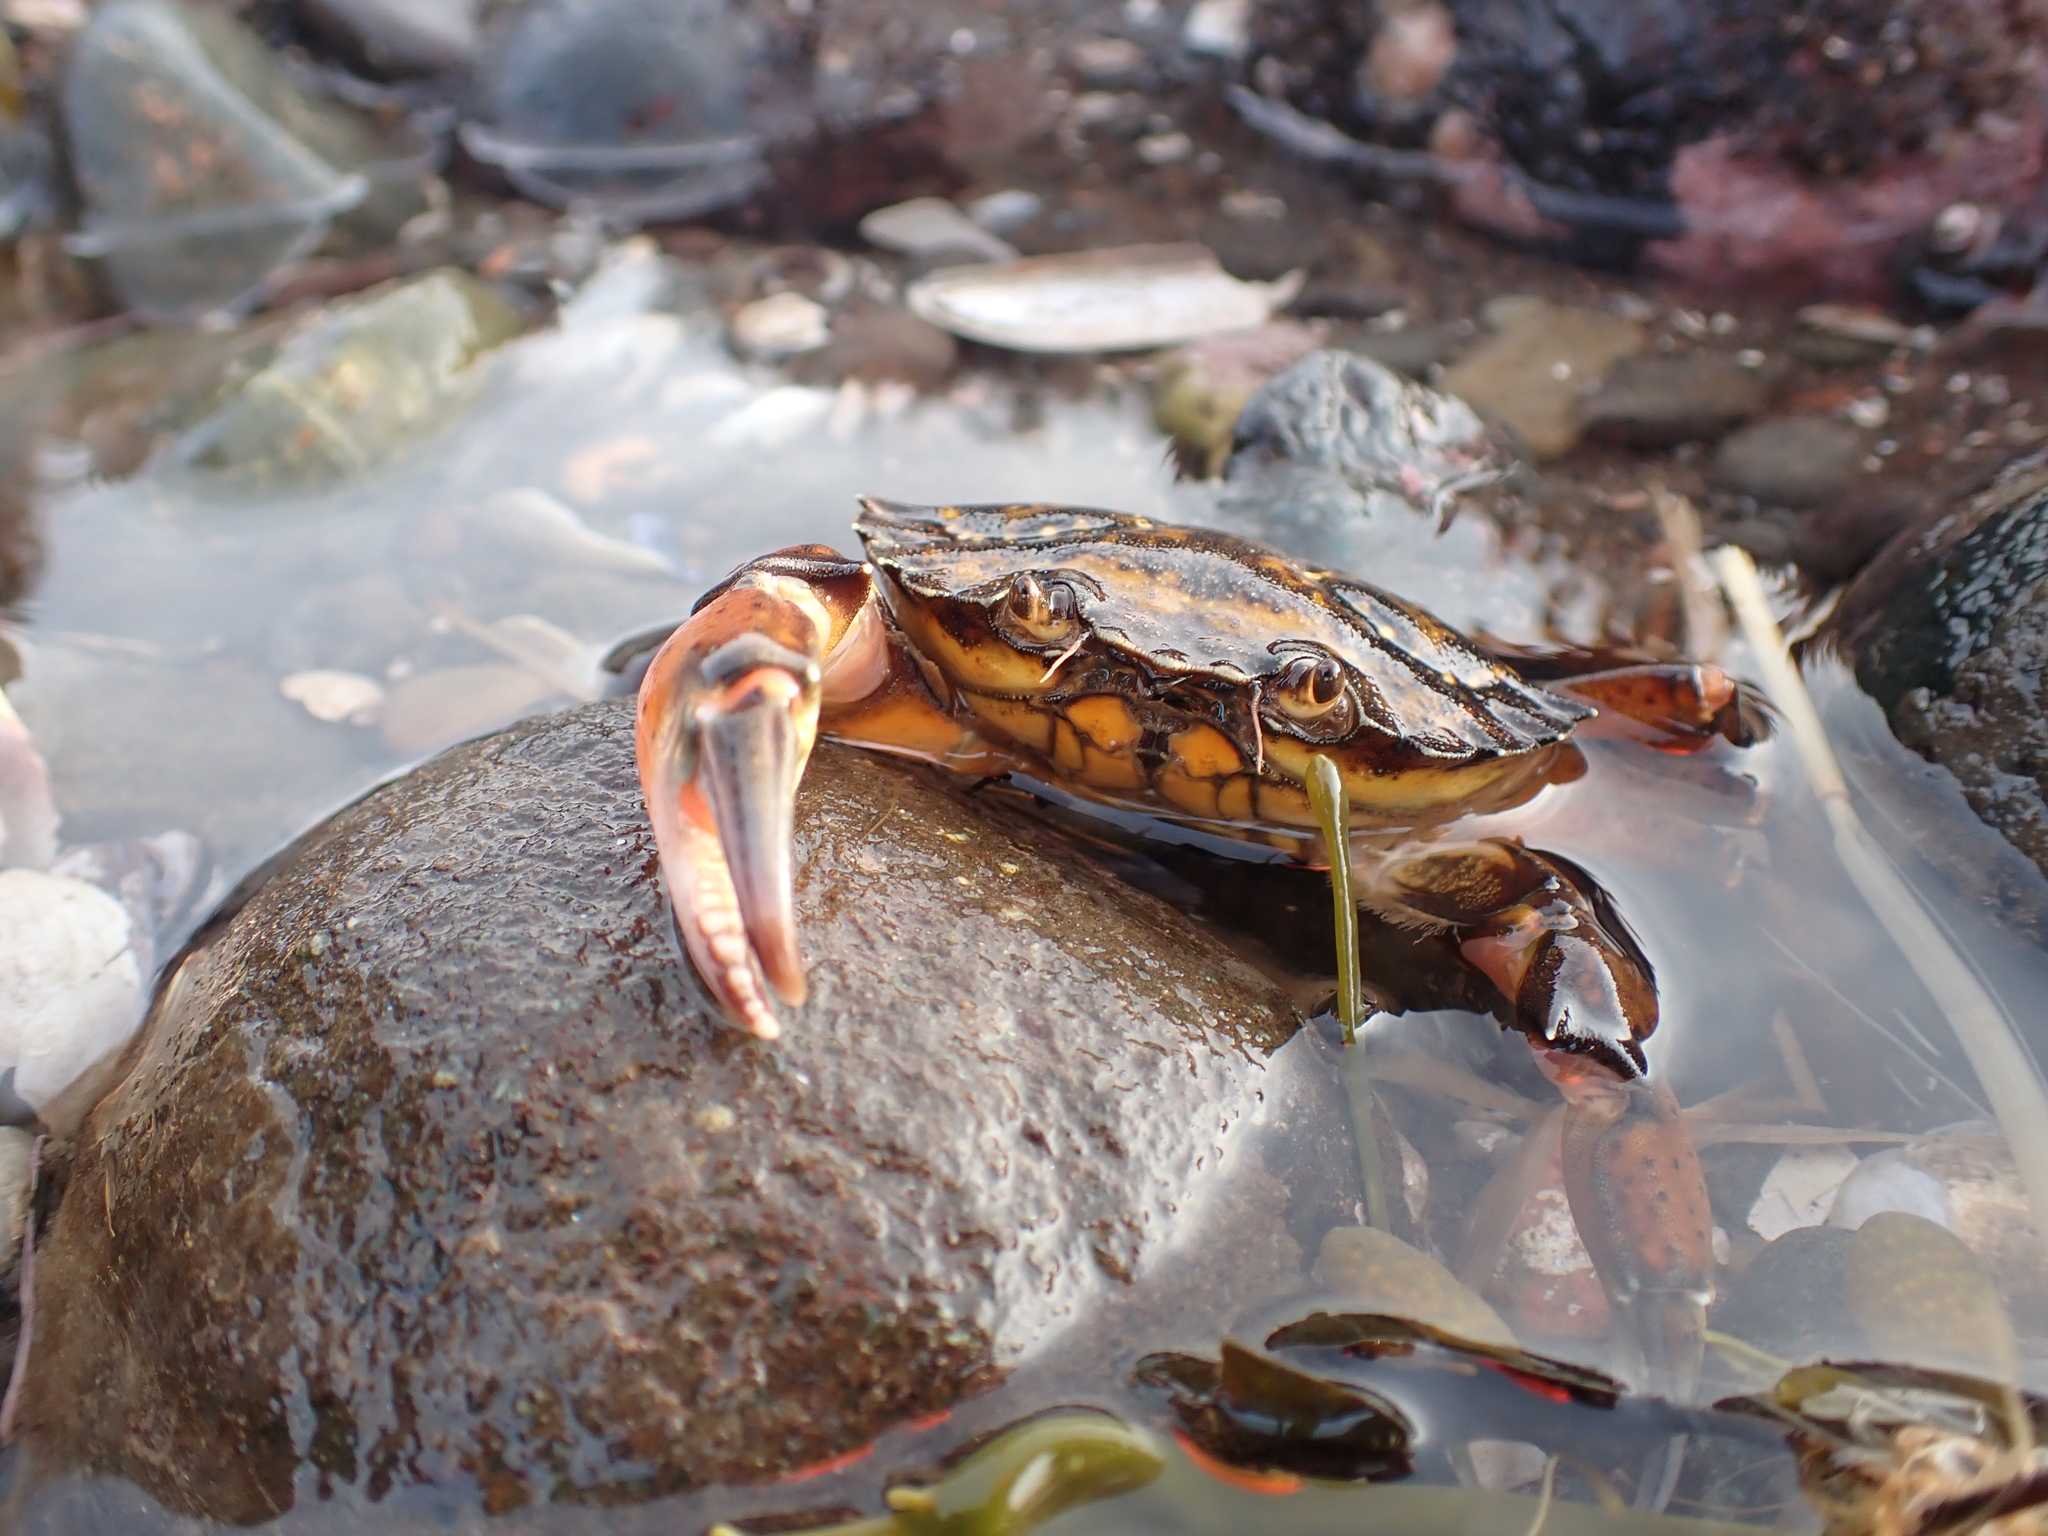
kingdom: Animalia
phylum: Arthropoda
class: Malacostraca
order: Decapoda
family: Carcinidae
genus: Carcinus
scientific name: Carcinus maenas
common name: European green crab
